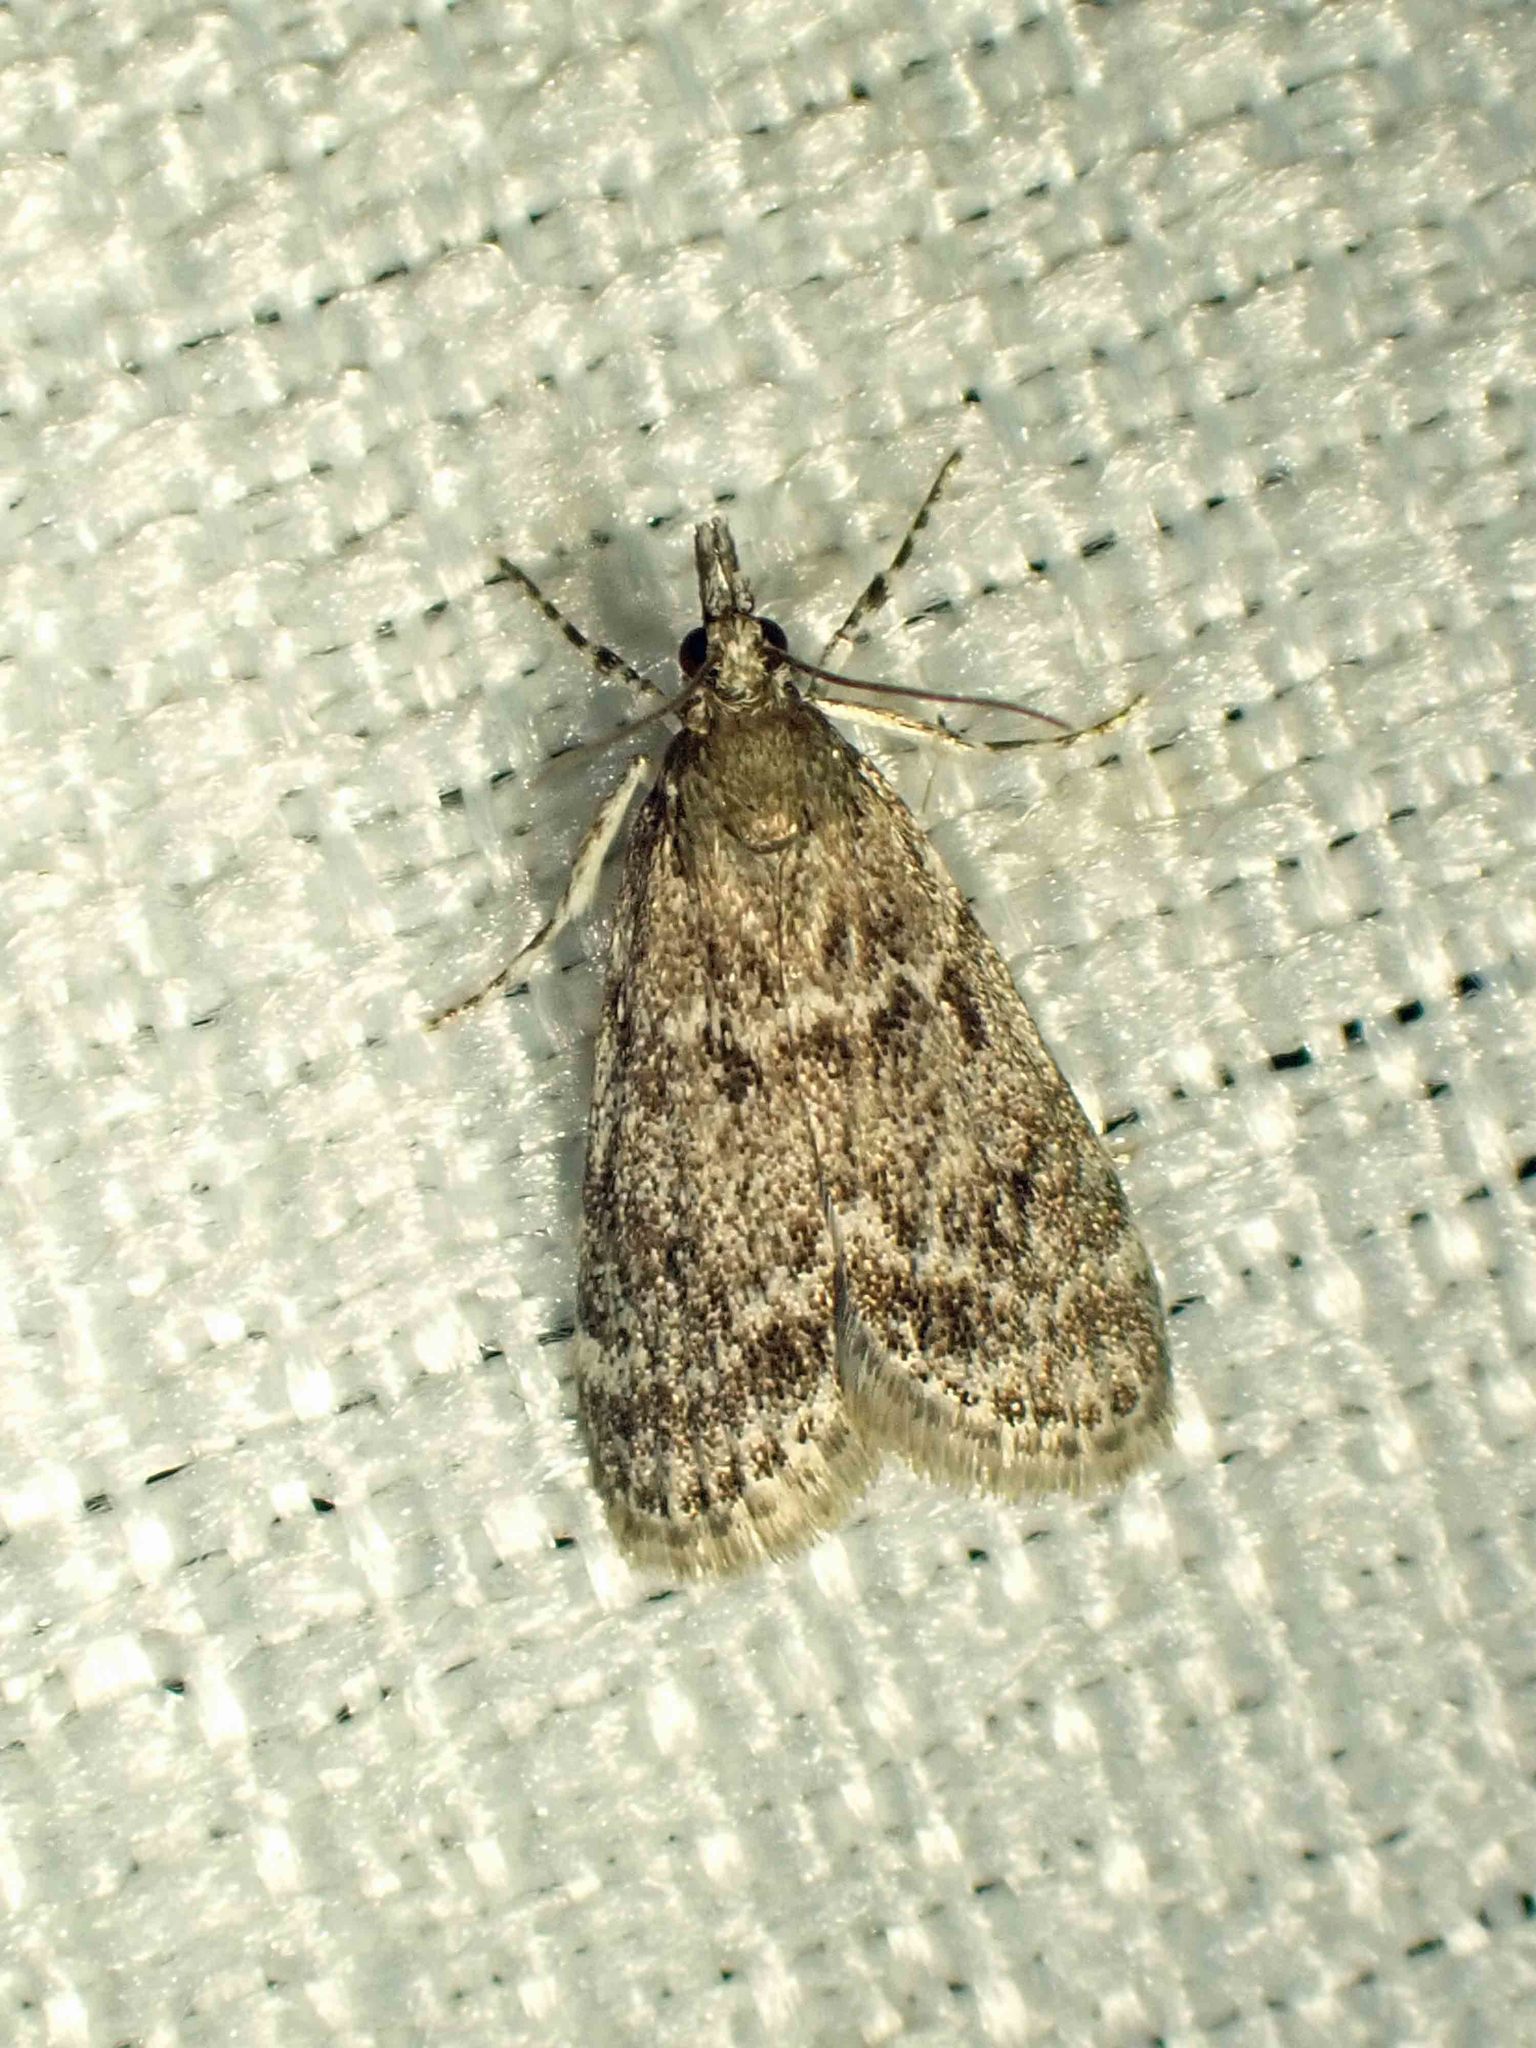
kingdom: Animalia
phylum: Arthropoda
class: Insecta
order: Lepidoptera
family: Crambidae
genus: Scoparia
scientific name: Scoparia biplagialis
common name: Double-striped scoparia moth
